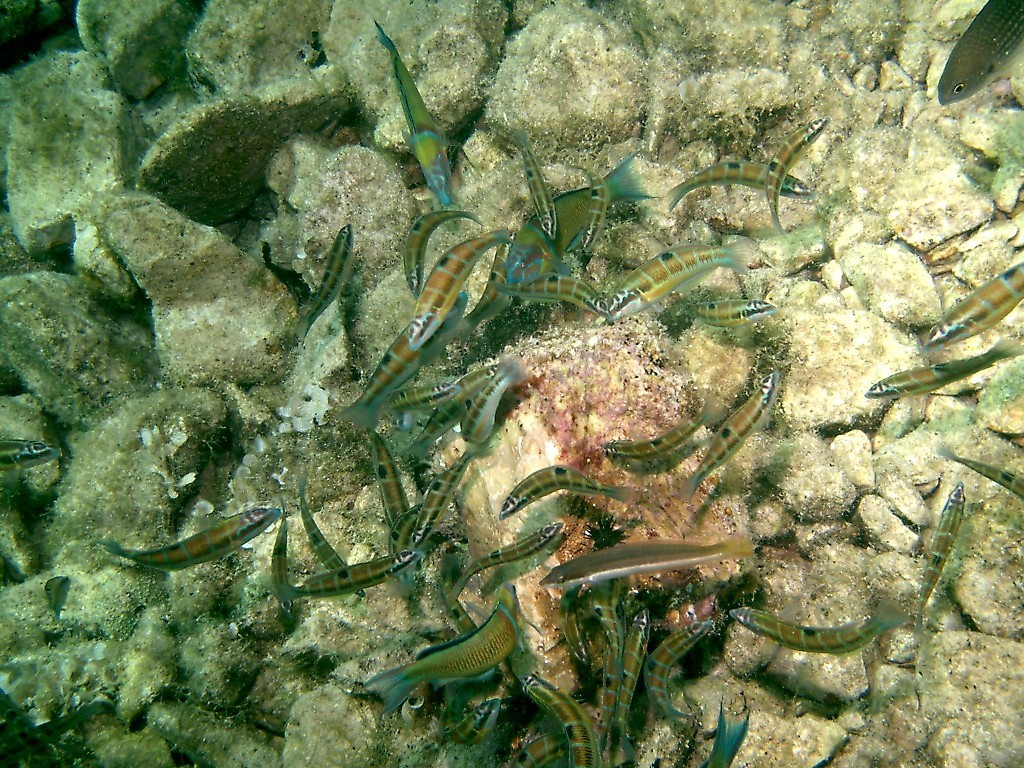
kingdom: Animalia
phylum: Chordata
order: Perciformes
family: Labridae
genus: Thalassoma
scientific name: Thalassoma pavo
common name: Ornate wrasse
